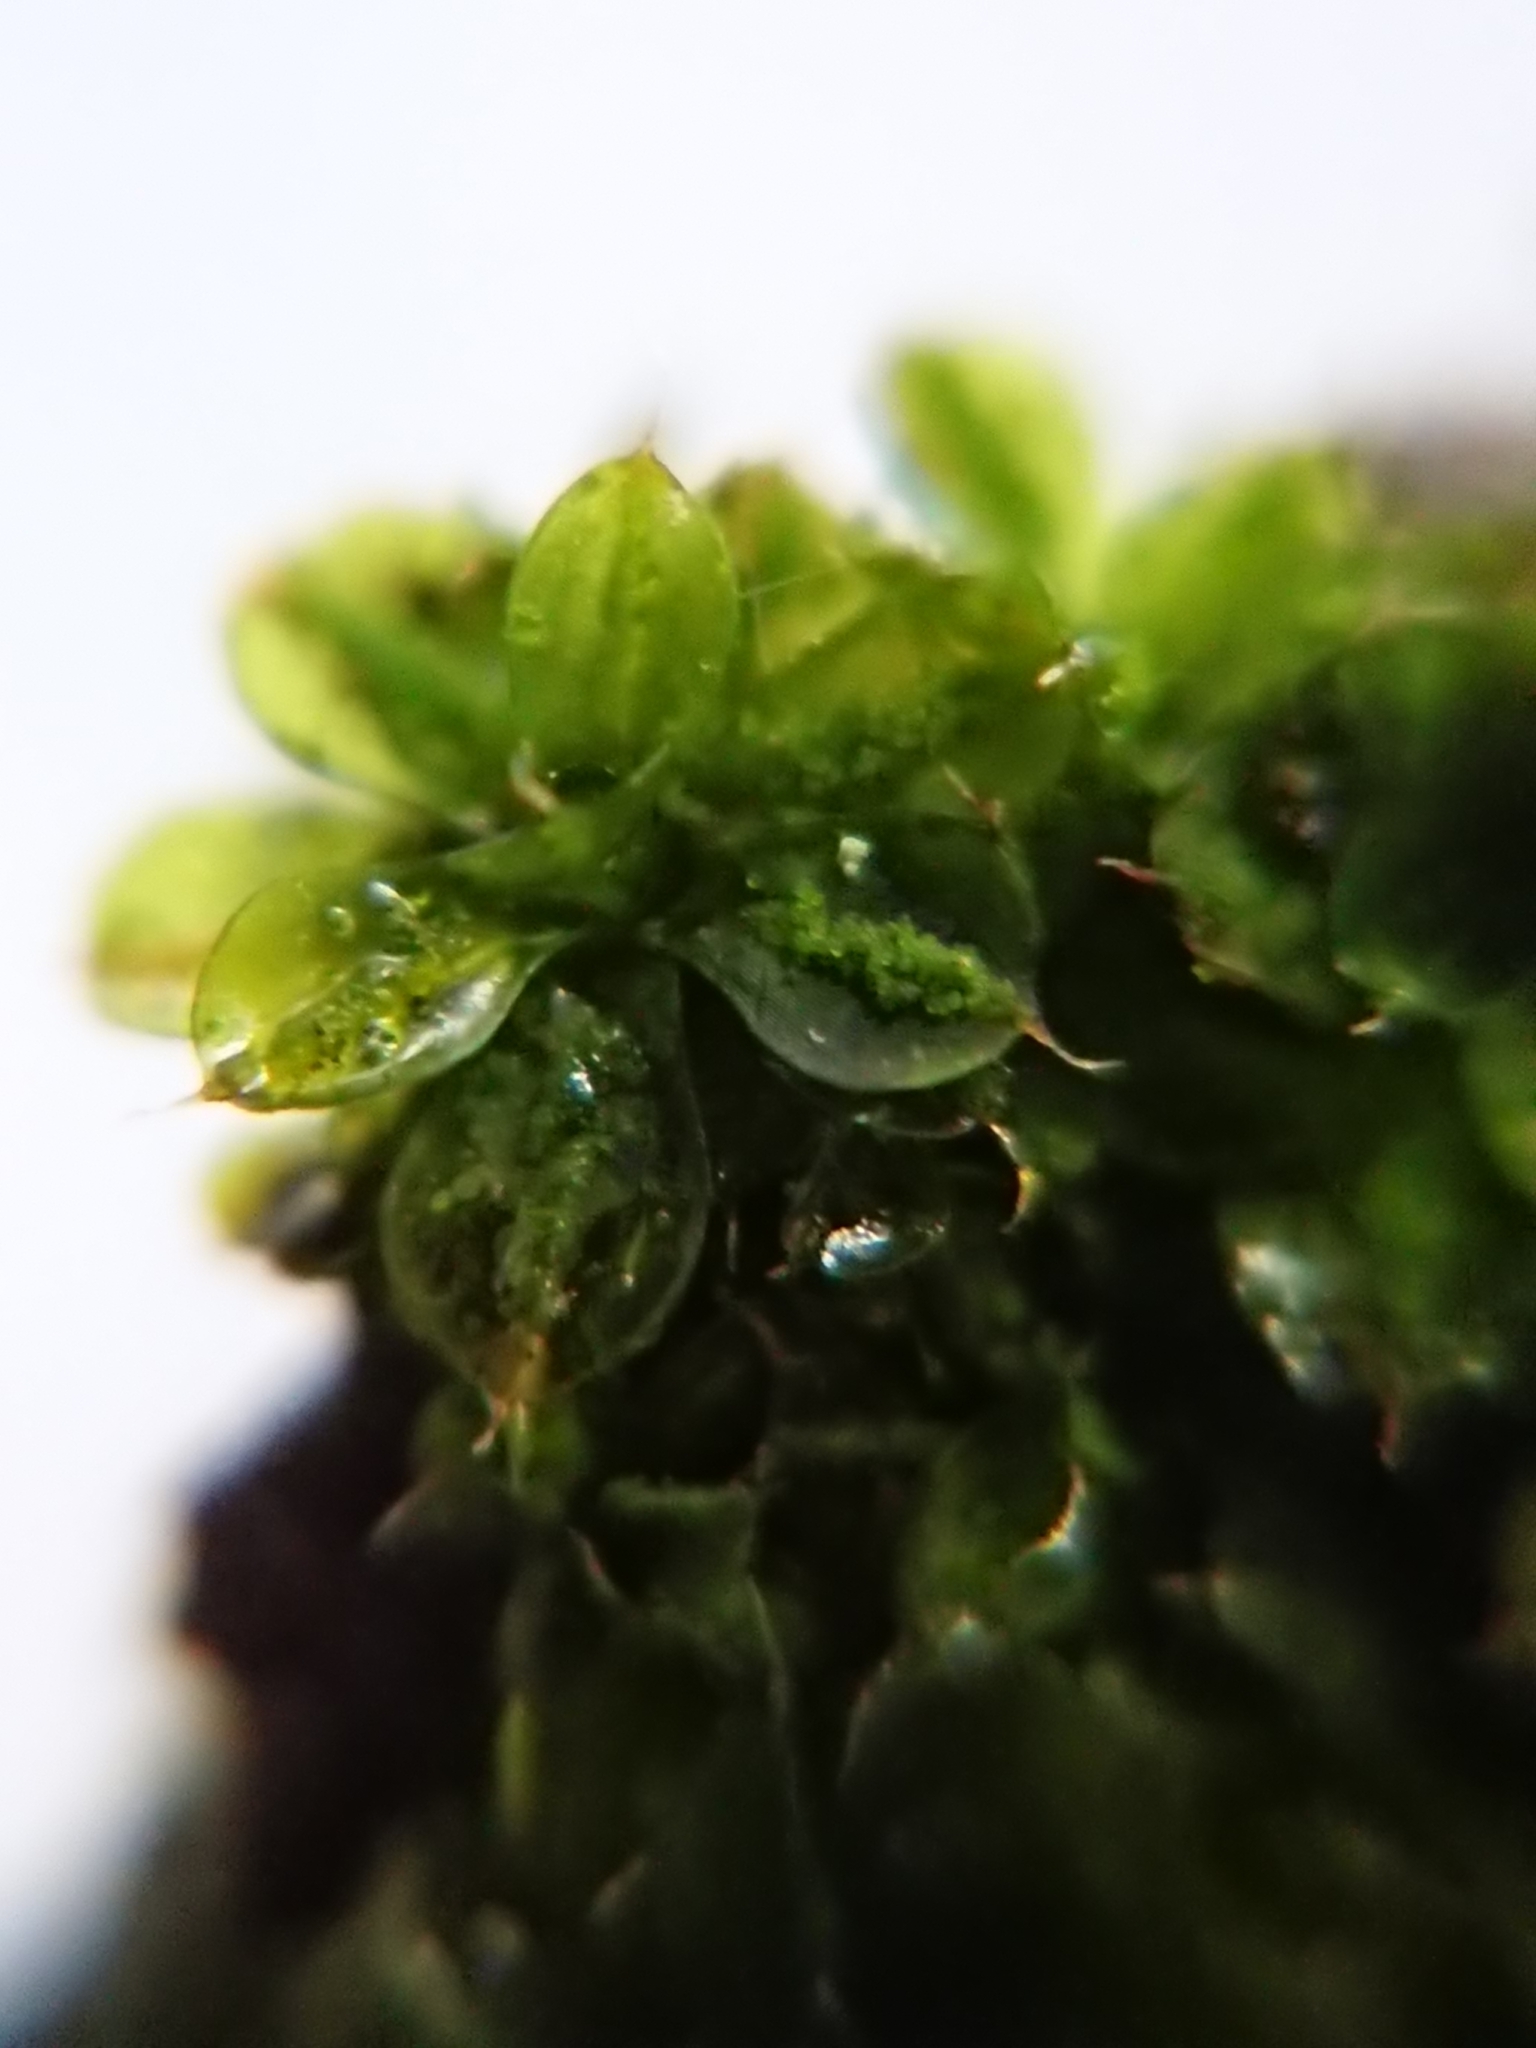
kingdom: Plantae
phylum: Bryophyta
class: Bryopsida
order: Pottiales
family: Pottiaceae
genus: Syntrichia
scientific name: Syntrichia papillosa
